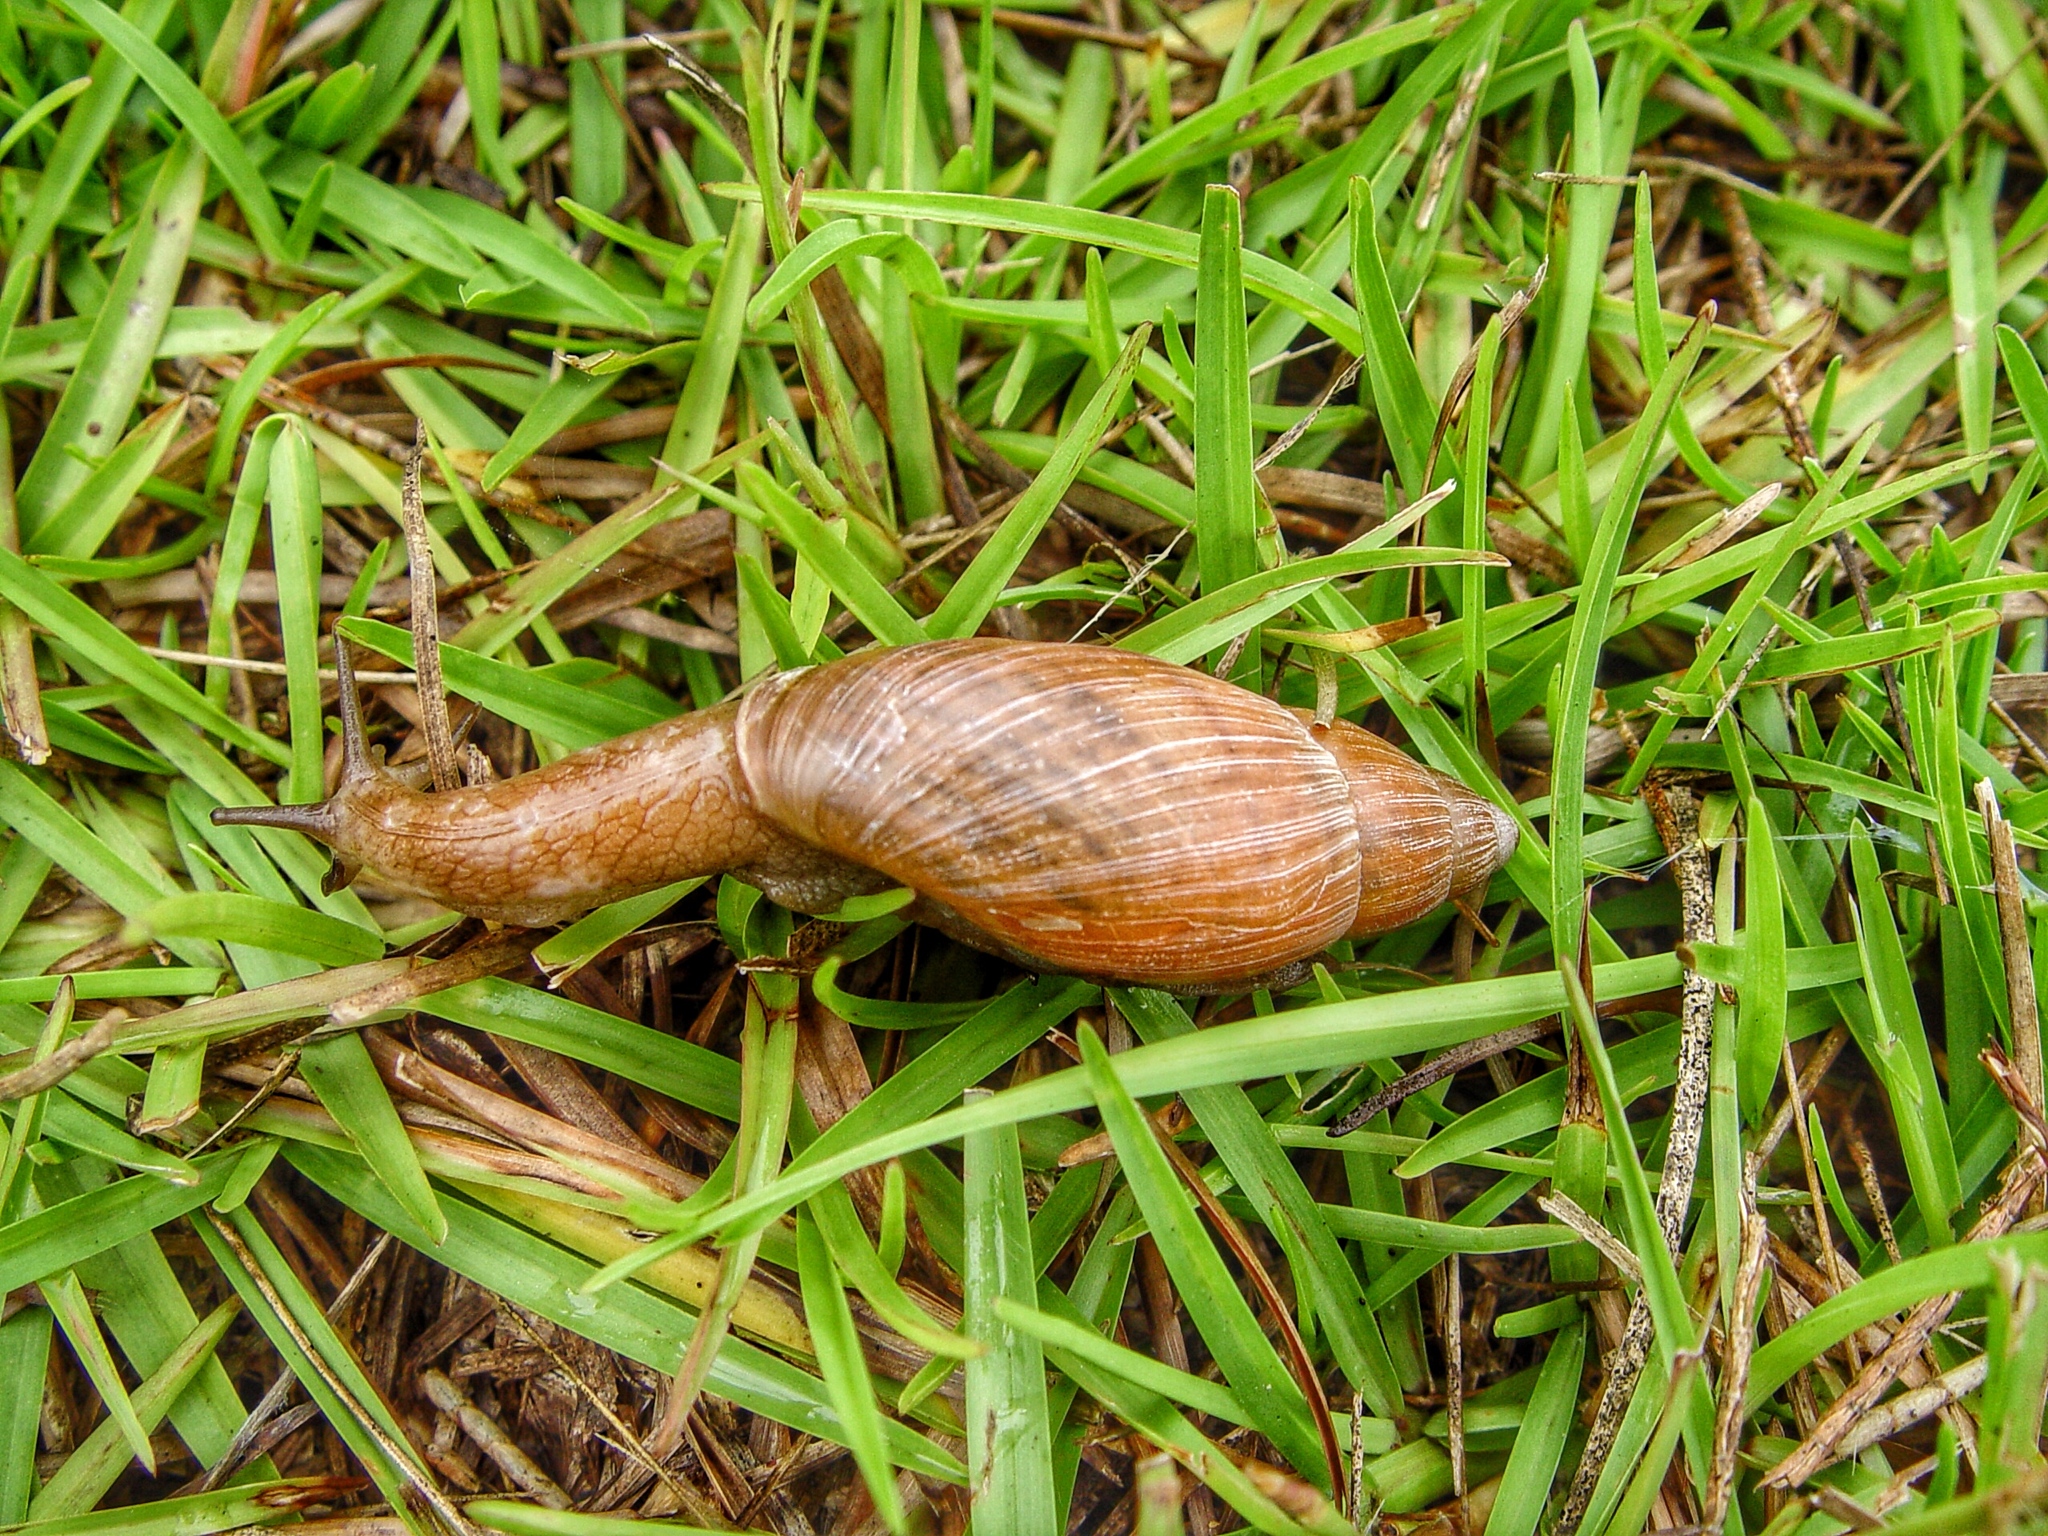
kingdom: Animalia
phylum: Mollusca
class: Gastropoda
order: Stylommatophora
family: Spiraxidae
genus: Euglandina
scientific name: Euglandina rosea
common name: Rosy wolfsnail
